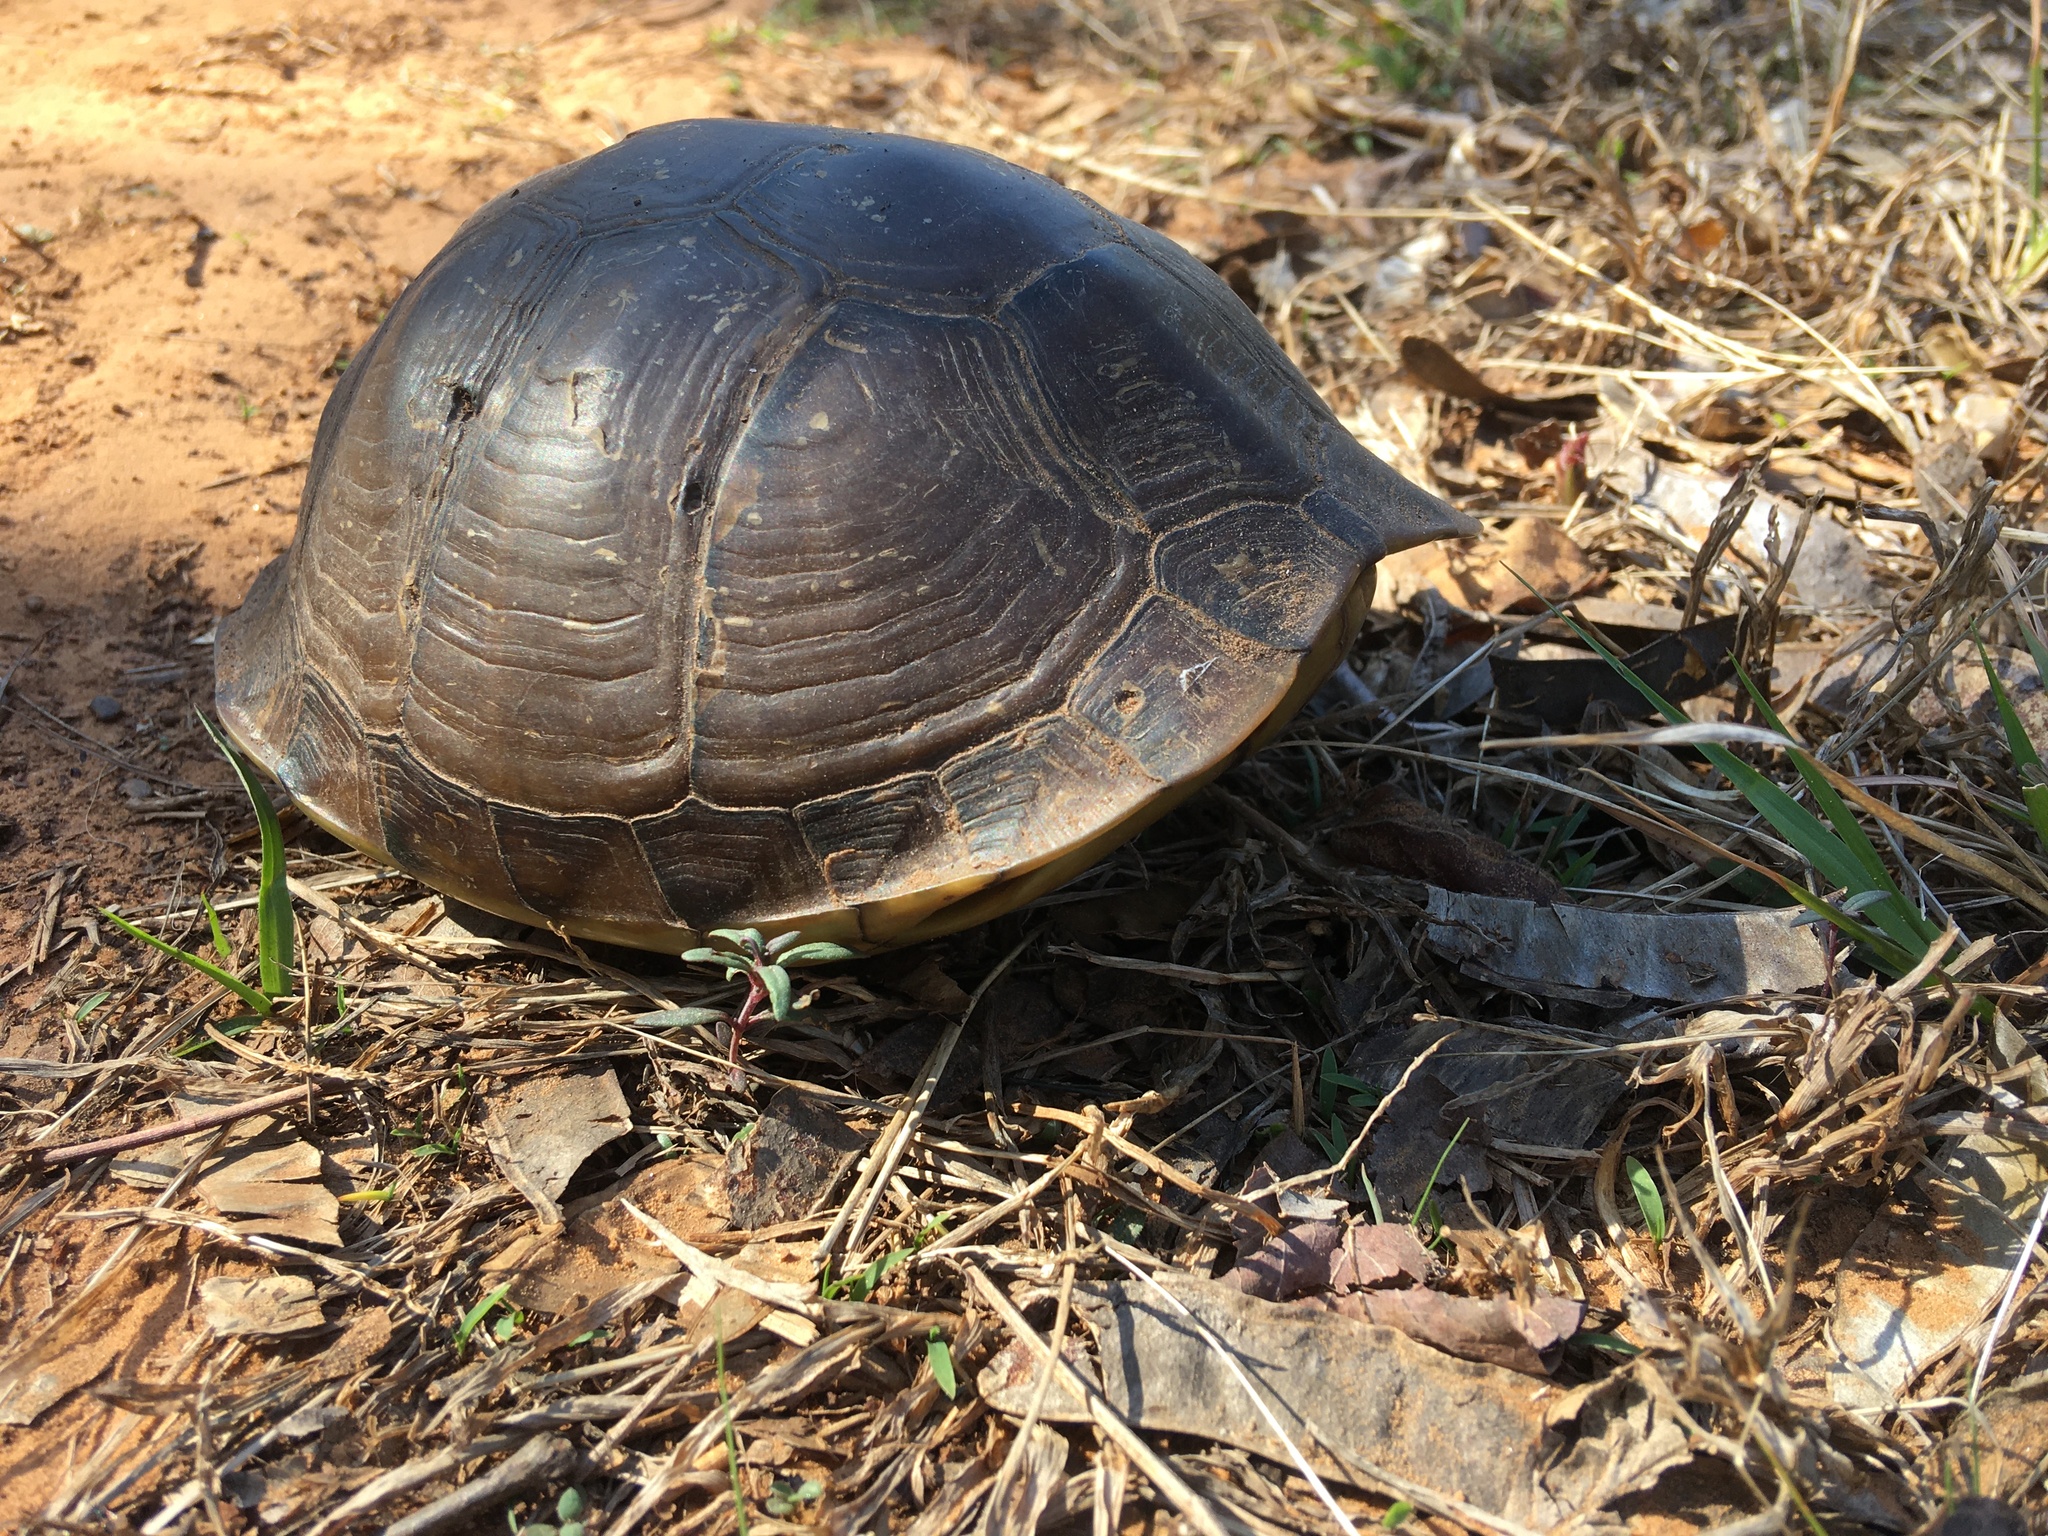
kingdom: Animalia
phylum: Chordata
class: Testudines
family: Emydidae
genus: Terrapene
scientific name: Terrapene carolina
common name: Common box turtle
